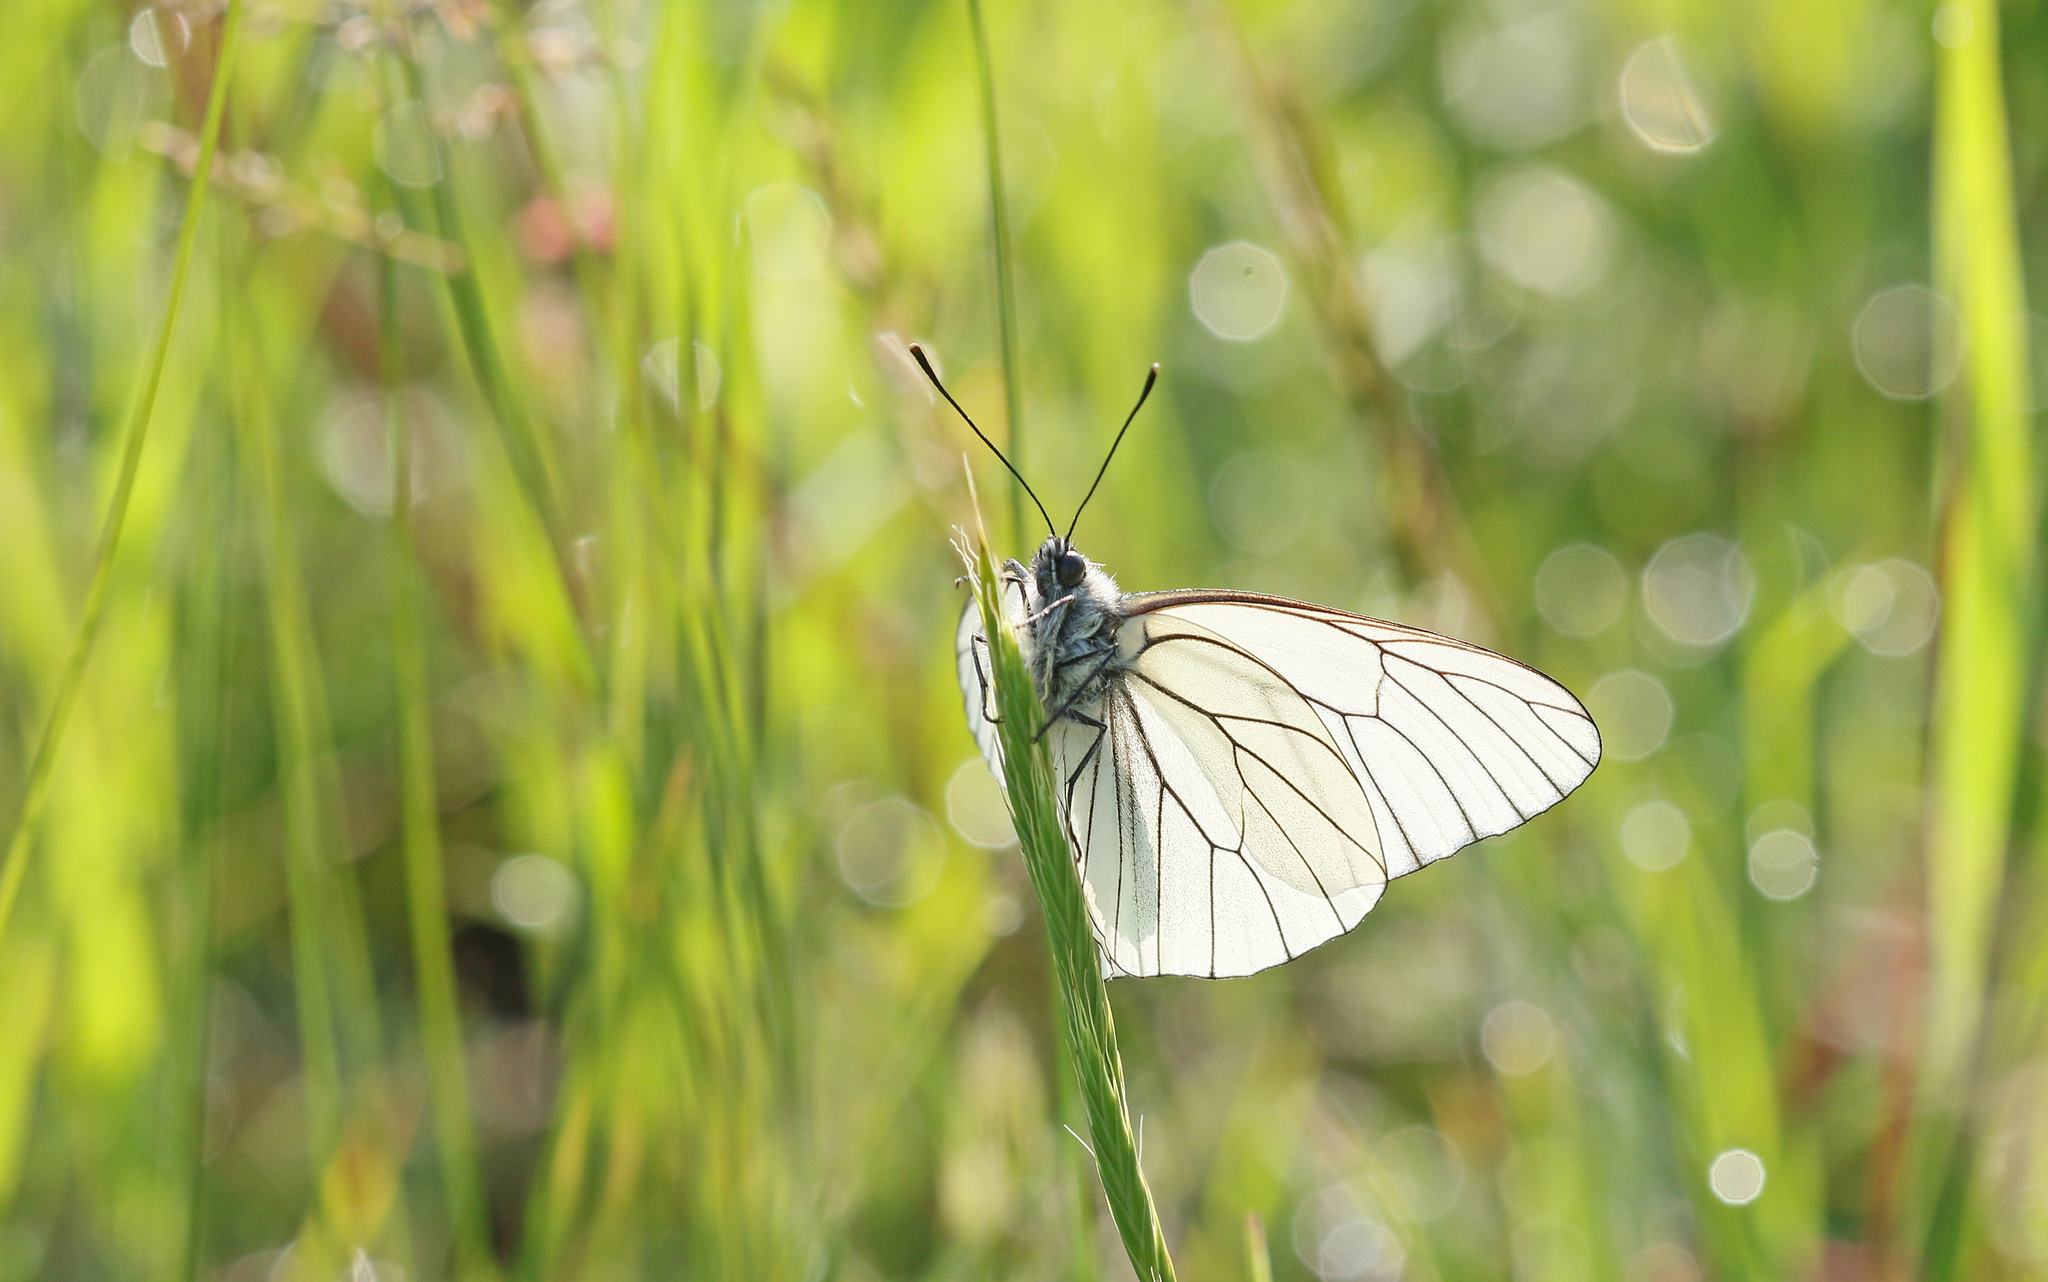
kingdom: Animalia
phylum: Arthropoda
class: Insecta
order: Lepidoptera
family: Pieridae
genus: Aporia
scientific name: Aporia crataegi
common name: Black-veined white
